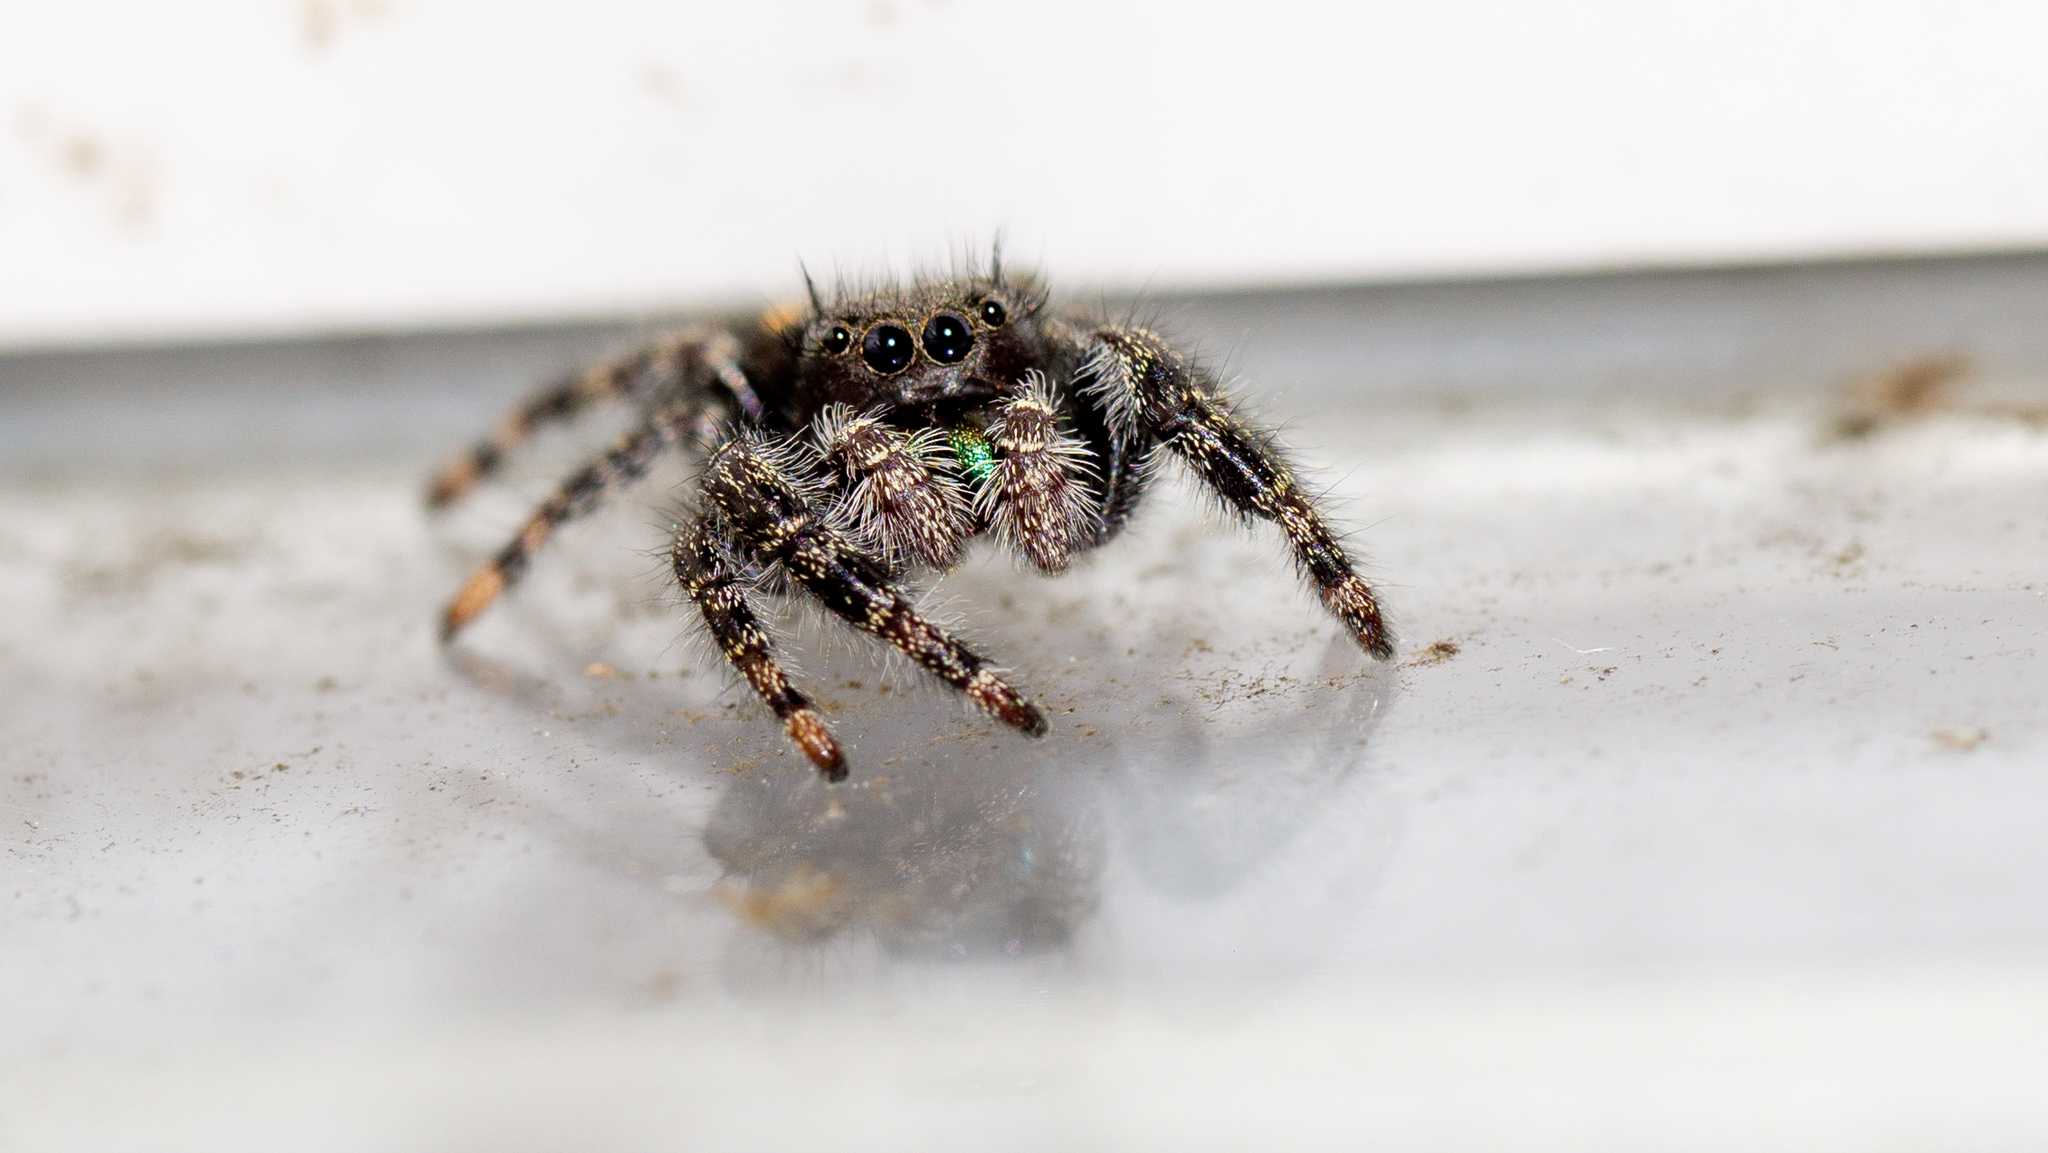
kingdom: Animalia
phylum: Arthropoda
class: Arachnida
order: Araneae
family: Salticidae
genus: Phidippus
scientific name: Phidippus audax
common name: Bold jumper
